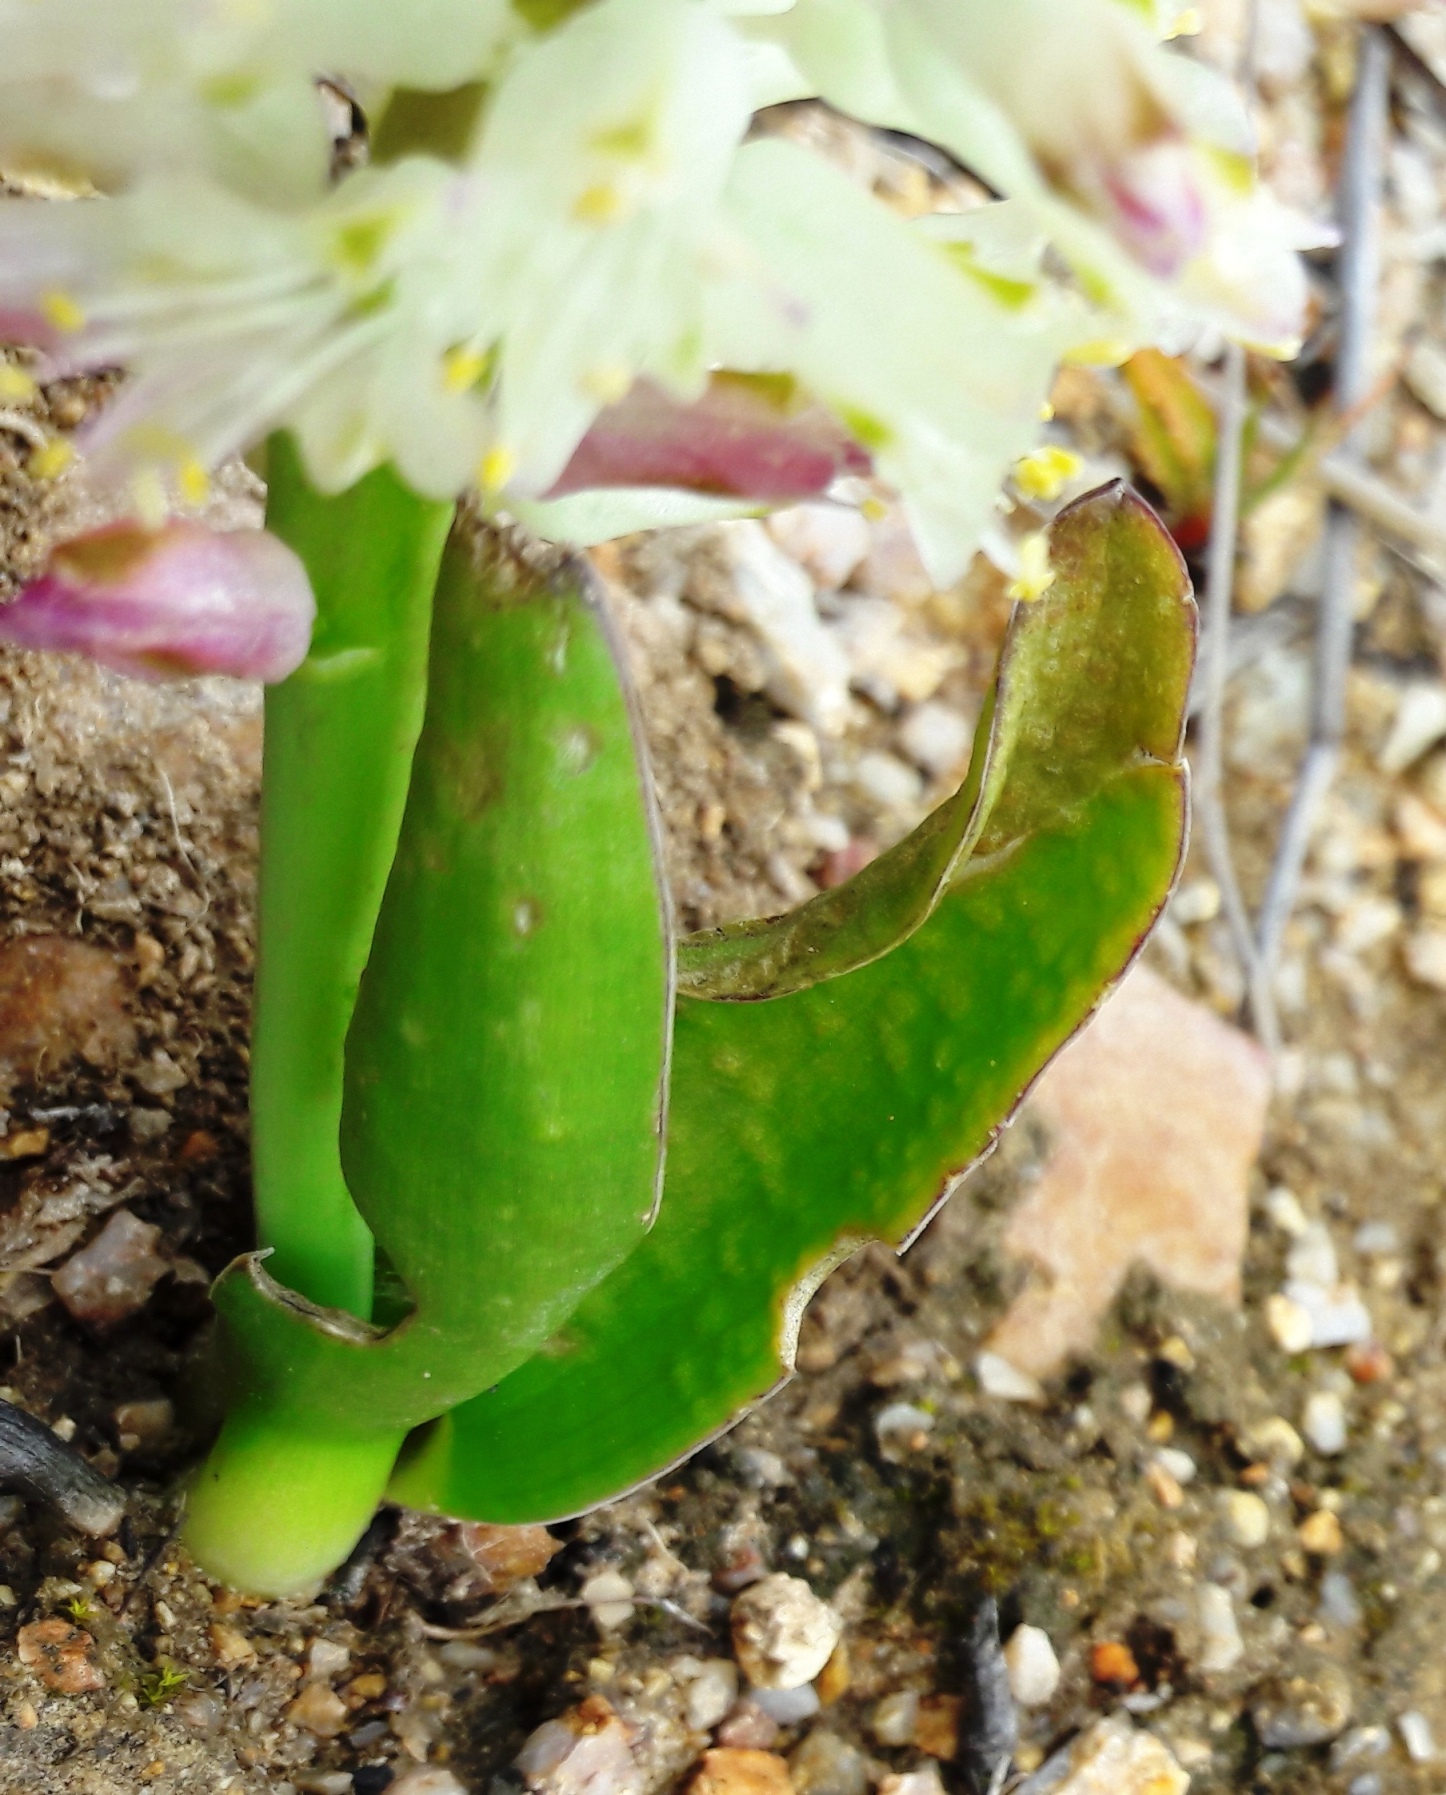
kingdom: Plantae
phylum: Tracheophyta
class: Liliopsida
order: Asparagales
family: Asparagaceae
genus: Lachenalia
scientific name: Lachenalia pallida
